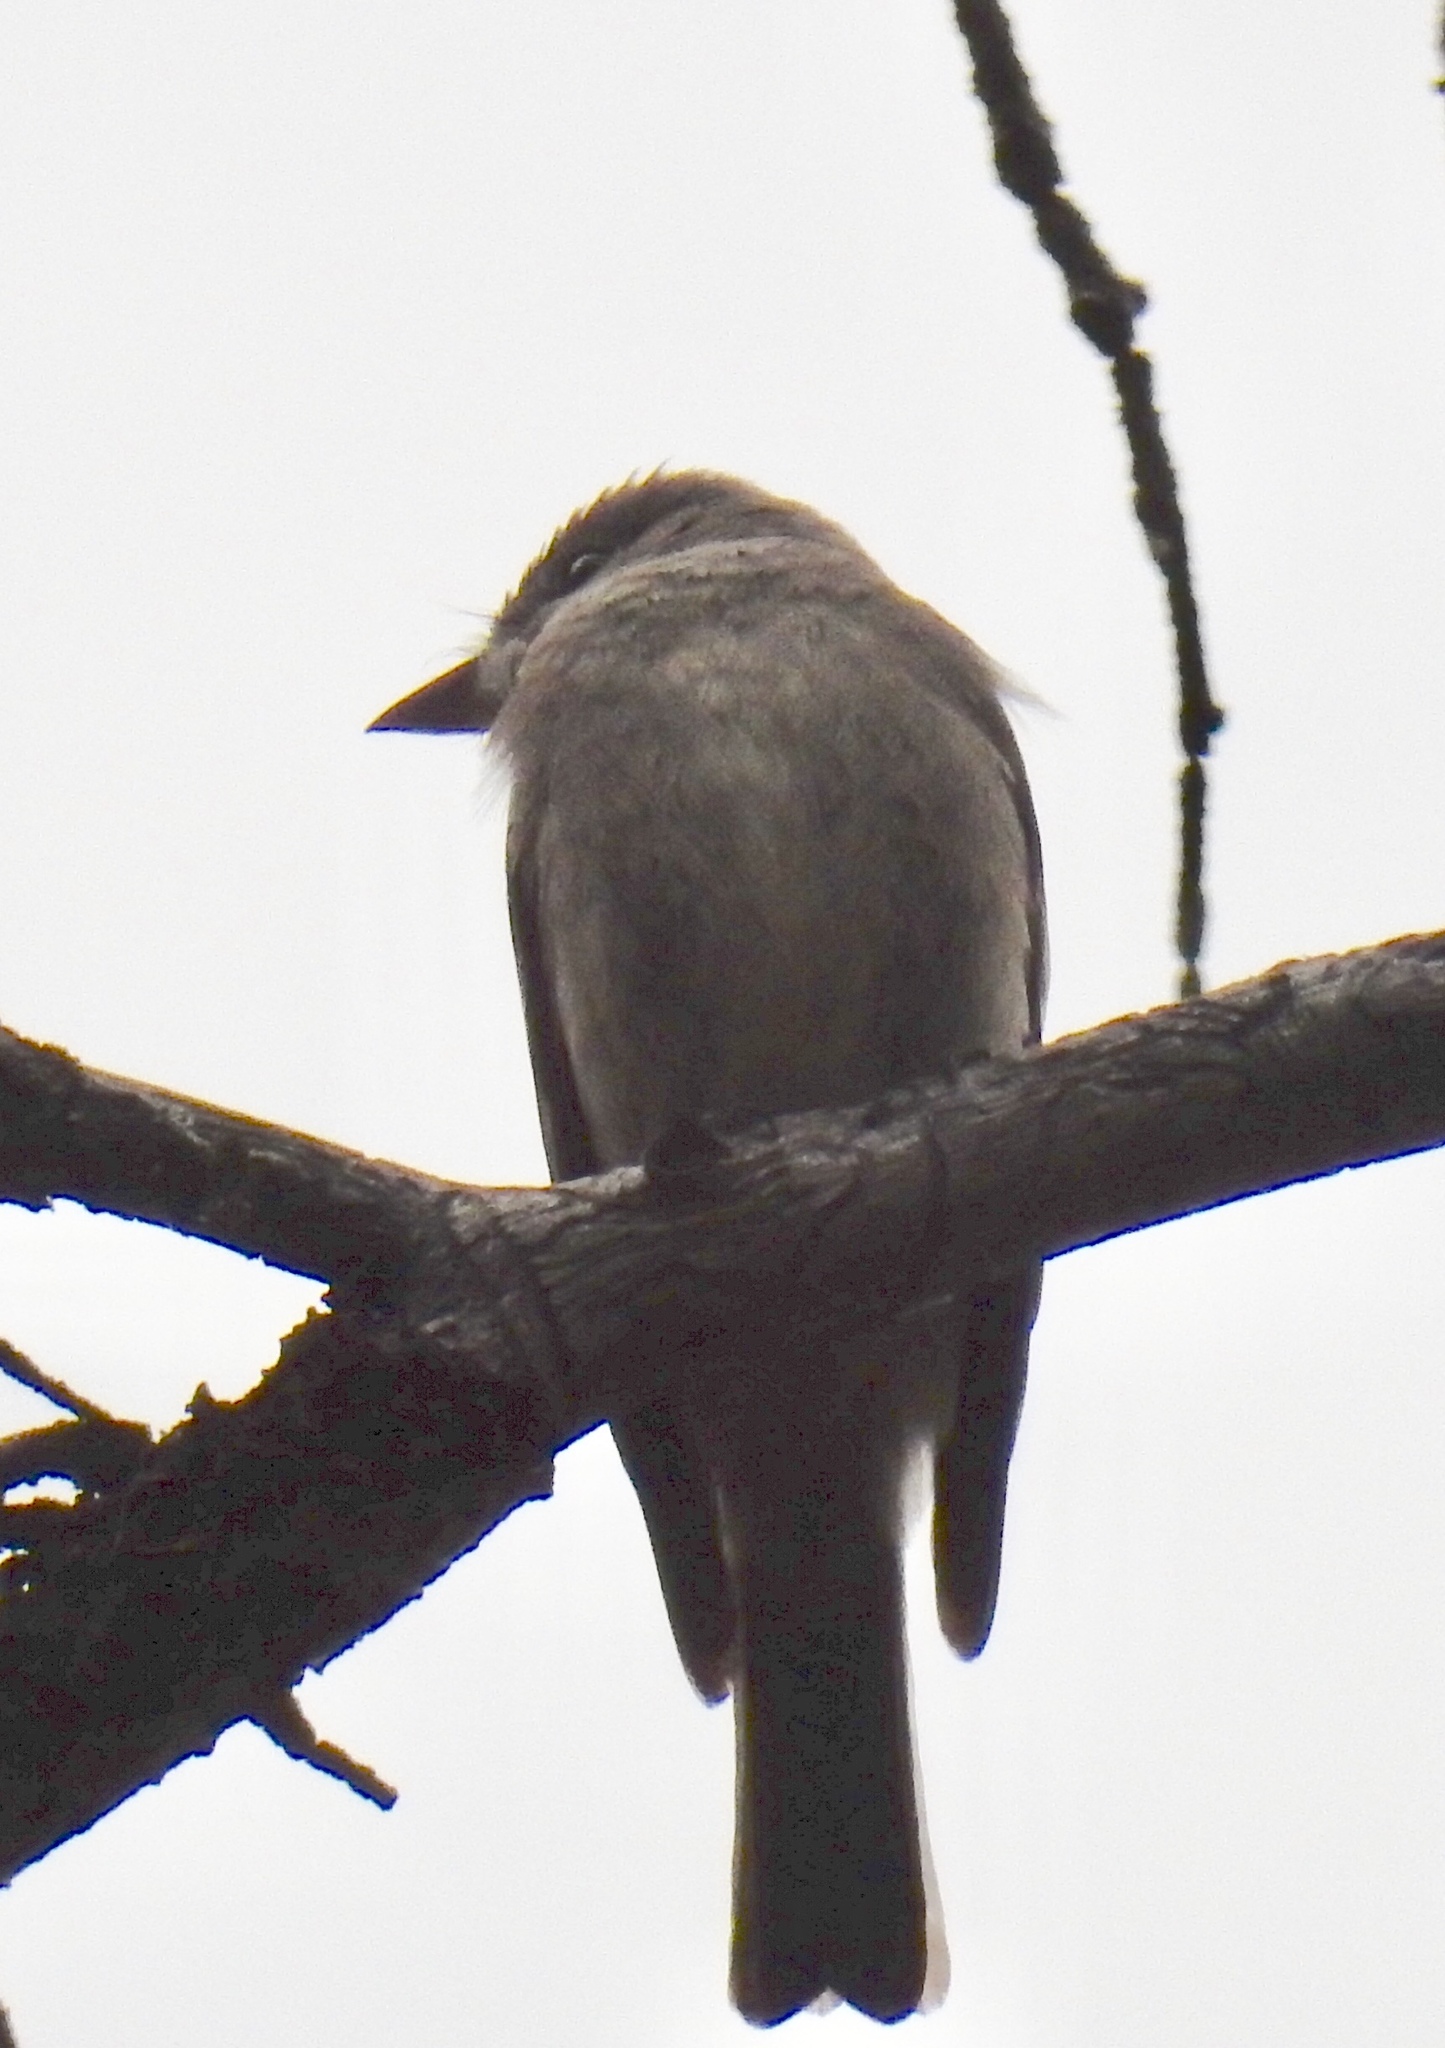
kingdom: Animalia
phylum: Chordata
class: Aves
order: Passeriformes
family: Tyrannidae
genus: Contopus
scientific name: Contopus sordidulus
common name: Western wood-pewee
